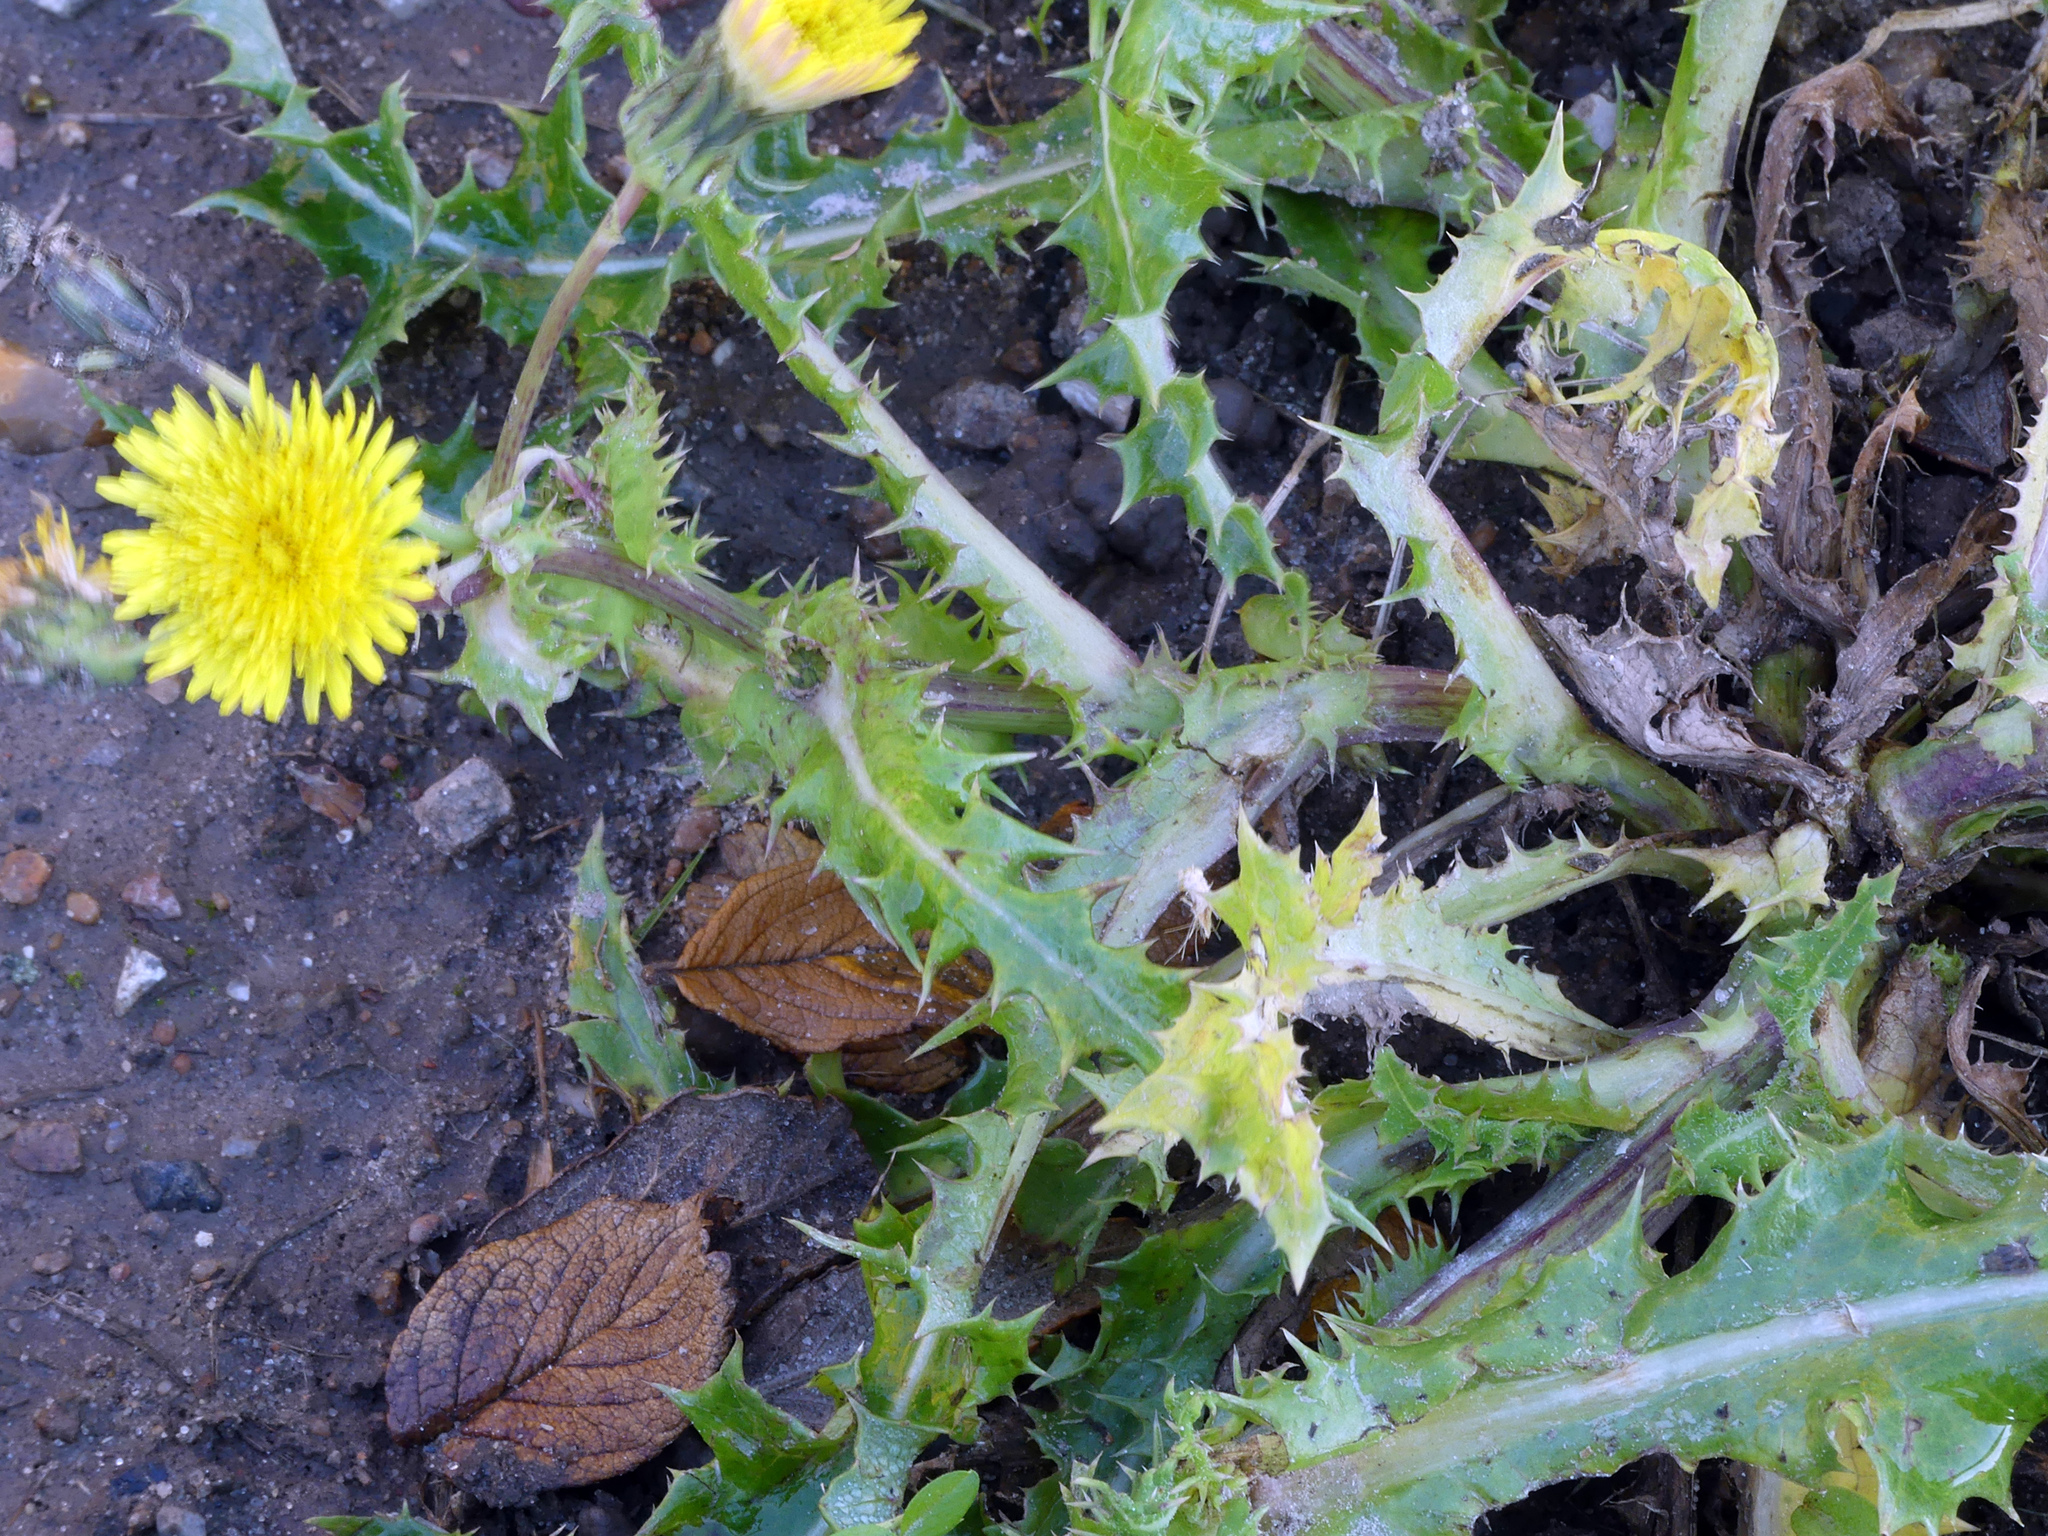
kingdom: Plantae
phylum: Tracheophyta
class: Magnoliopsida
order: Asterales
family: Asteraceae
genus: Sonchus
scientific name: Sonchus asper
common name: Prickly sow-thistle
